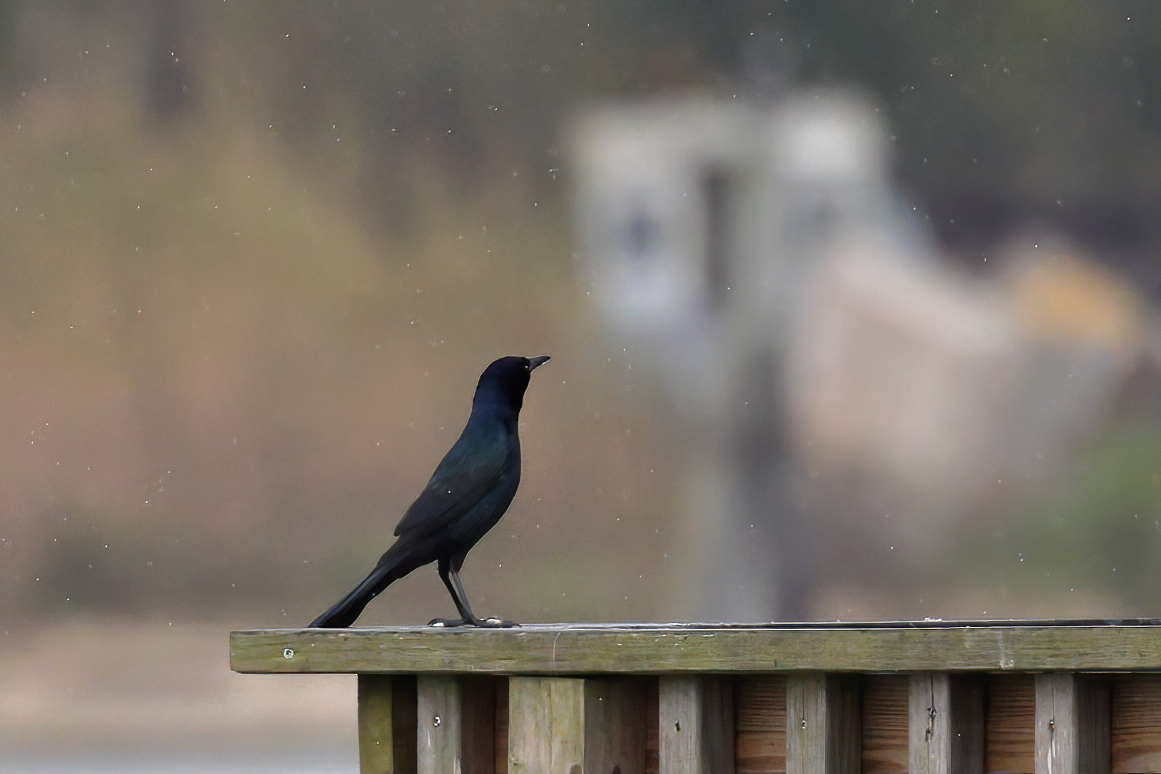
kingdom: Animalia
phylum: Chordata
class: Aves
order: Passeriformes
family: Icteridae
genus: Quiscalus
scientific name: Quiscalus major
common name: Boat-tailed grackle
